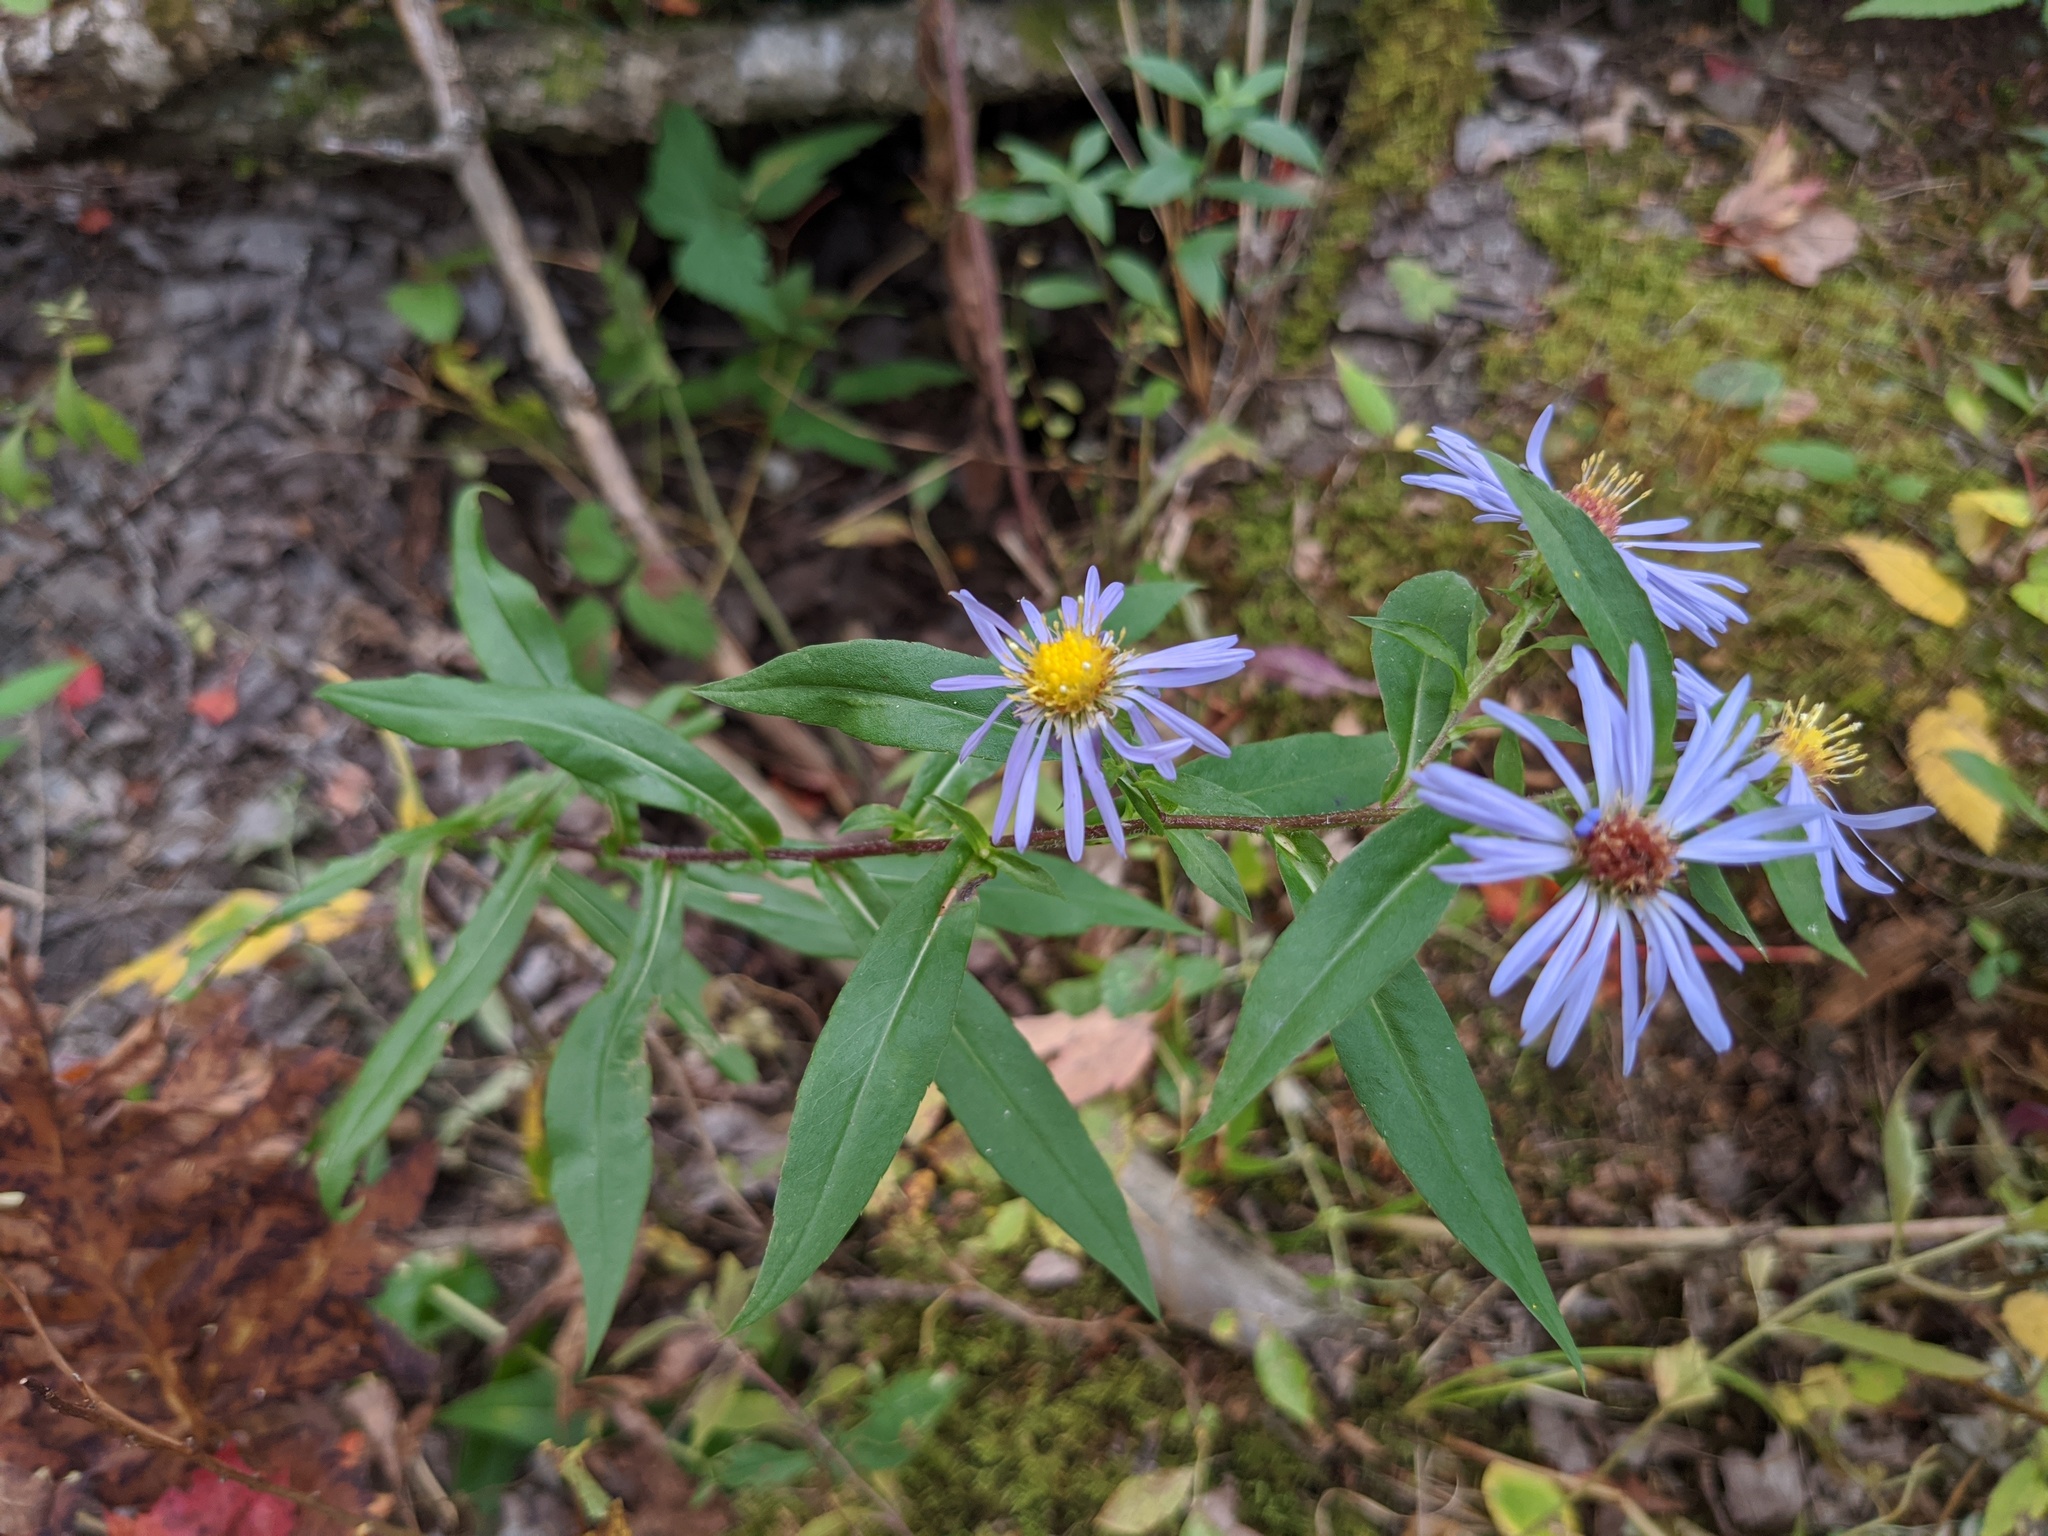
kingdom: Plantae
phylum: Tracheophyta
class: Magnoliopsida
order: Asterales
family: Asteraceae
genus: Symphyotrichum
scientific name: Symphyotrichum puniceum
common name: Bog aster
